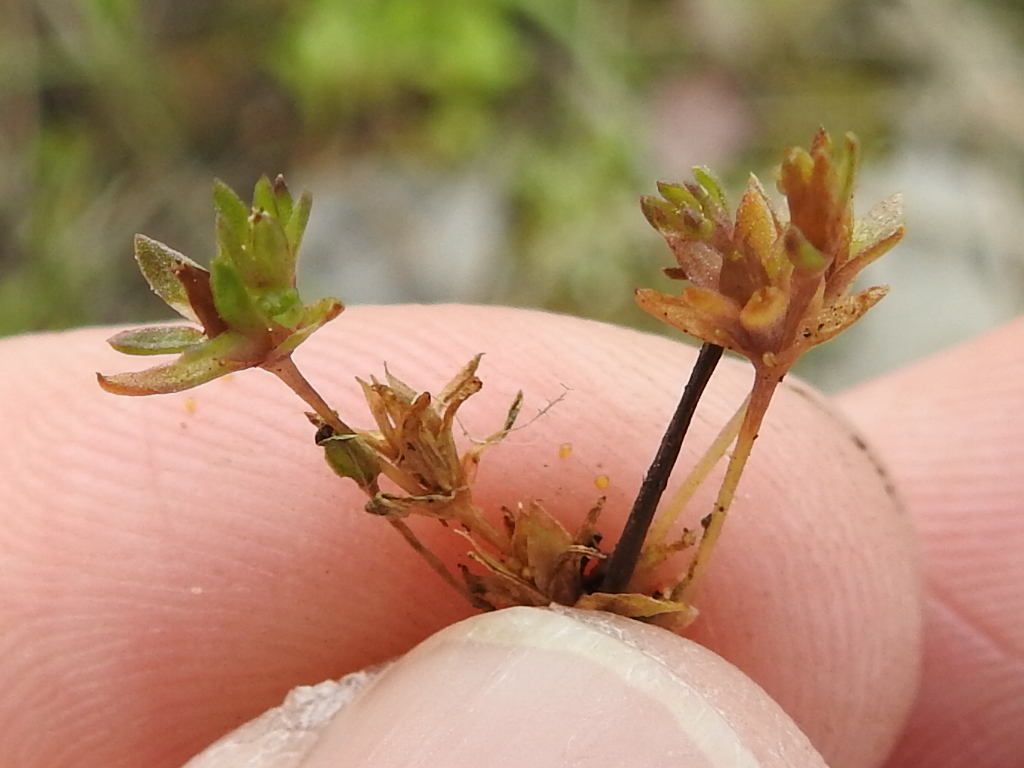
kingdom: Plantae
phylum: Tracheophyta
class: Magnoliopsida
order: Caryophyllales
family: Caryophyllaceae
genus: Geocarpon
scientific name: Geocarpon minimum
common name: Tiny-tim
